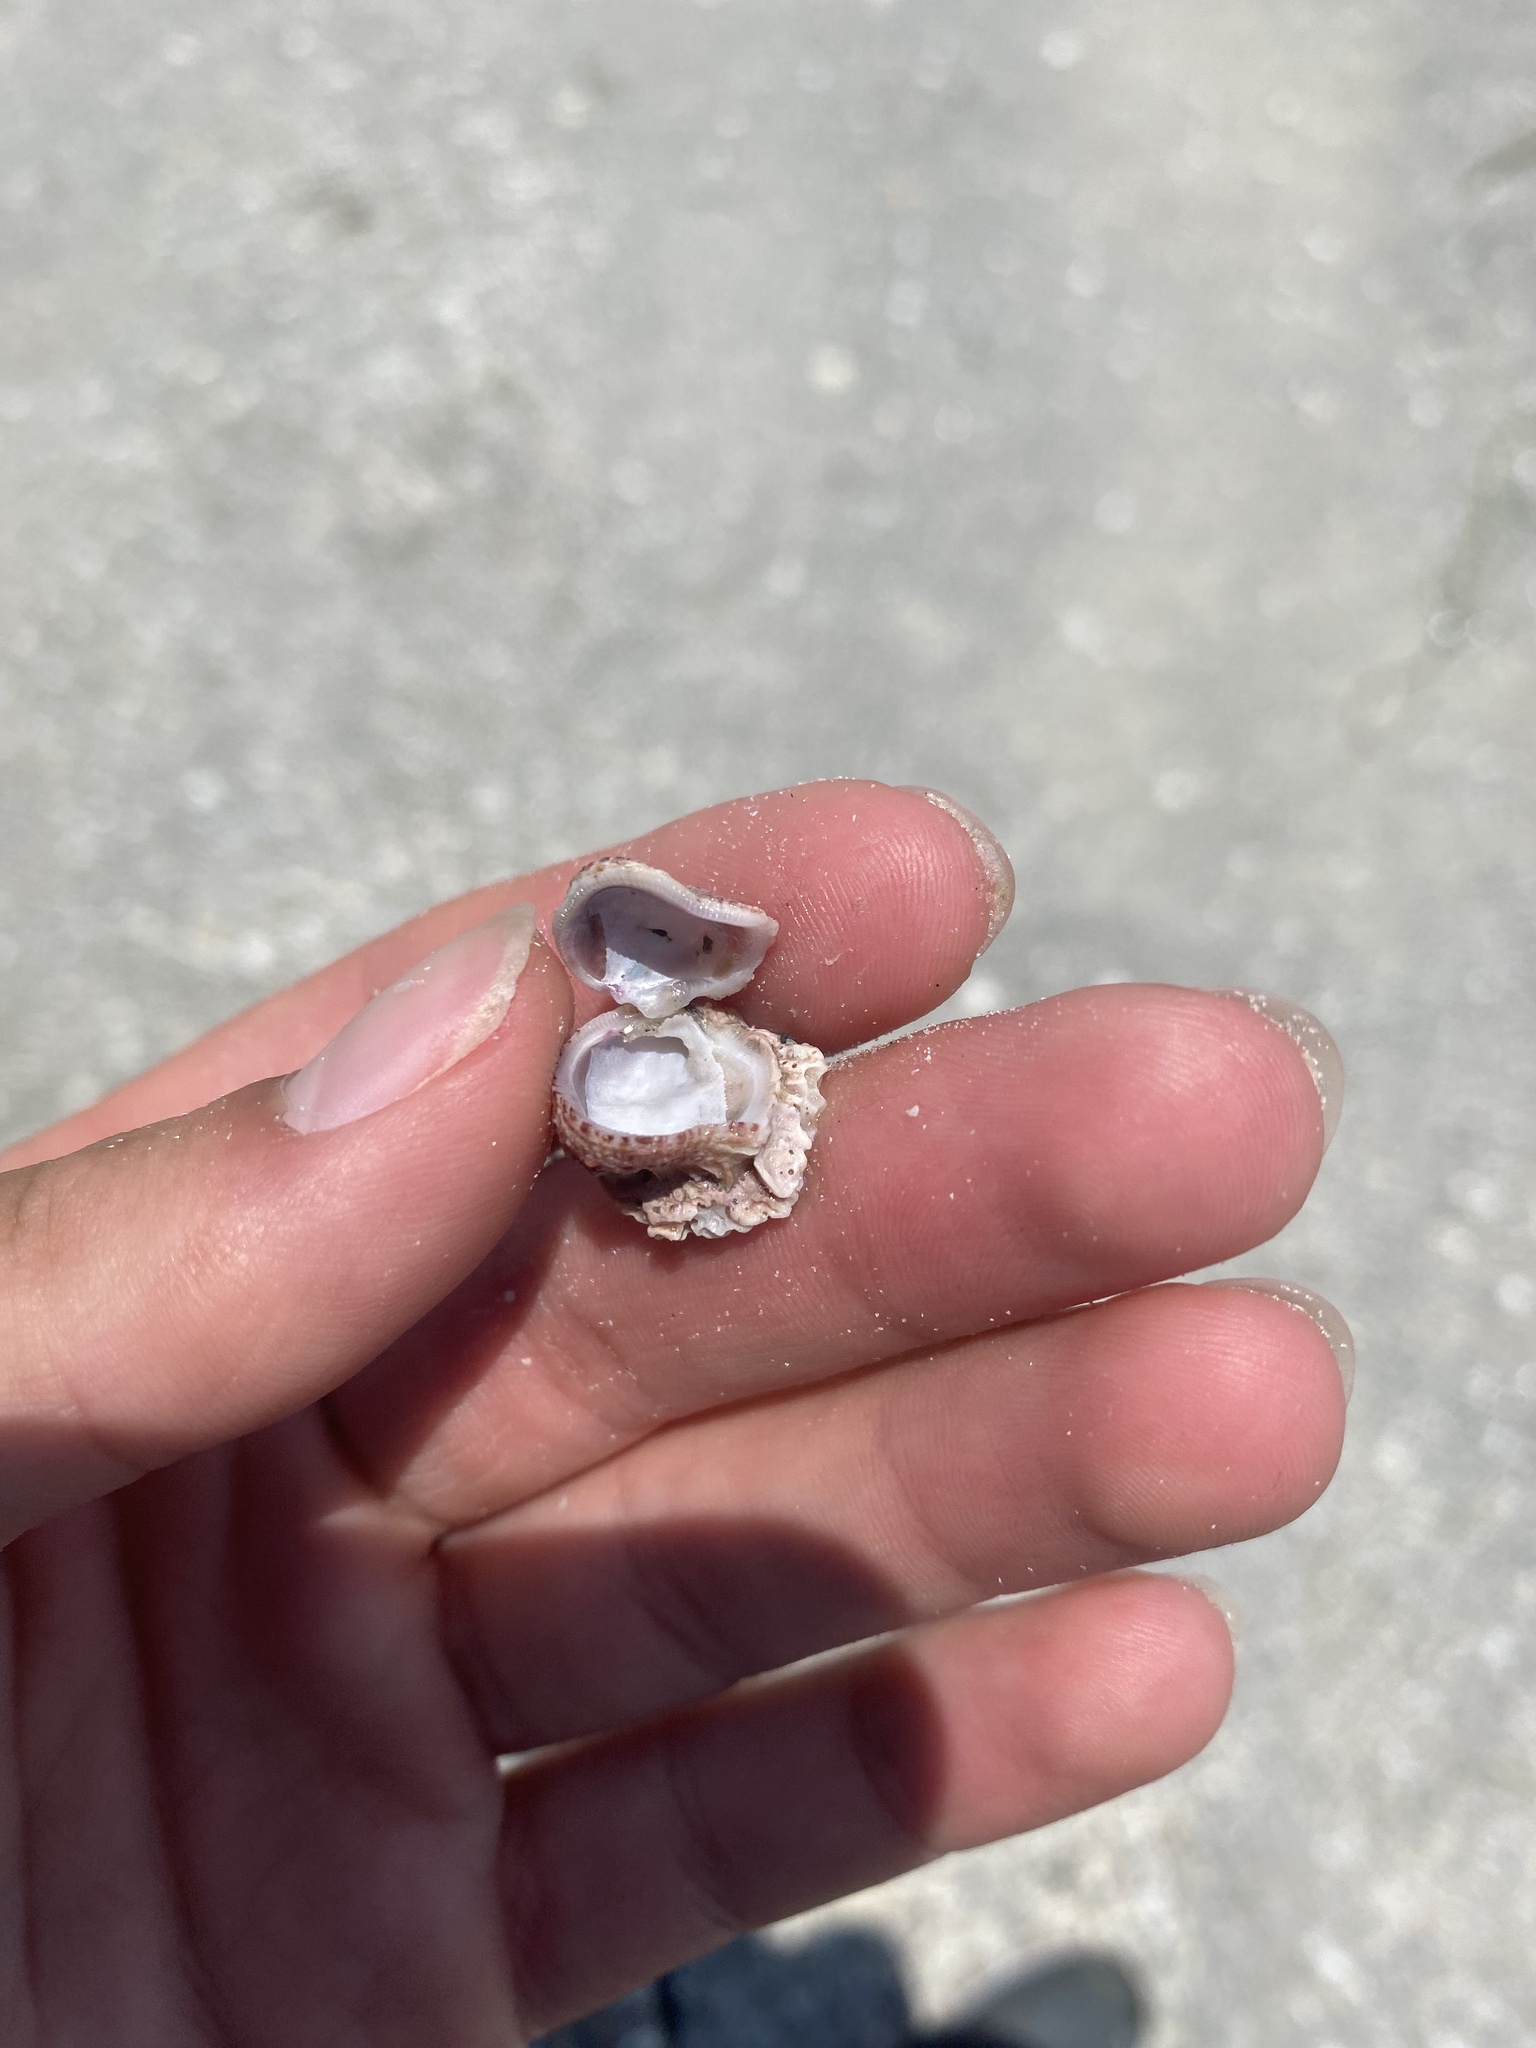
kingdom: Animalia
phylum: Mollusca
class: Bivalvia
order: Venerida
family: Chamidae
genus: Chama
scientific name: Chama congregata
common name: Corrugate jewelbox
